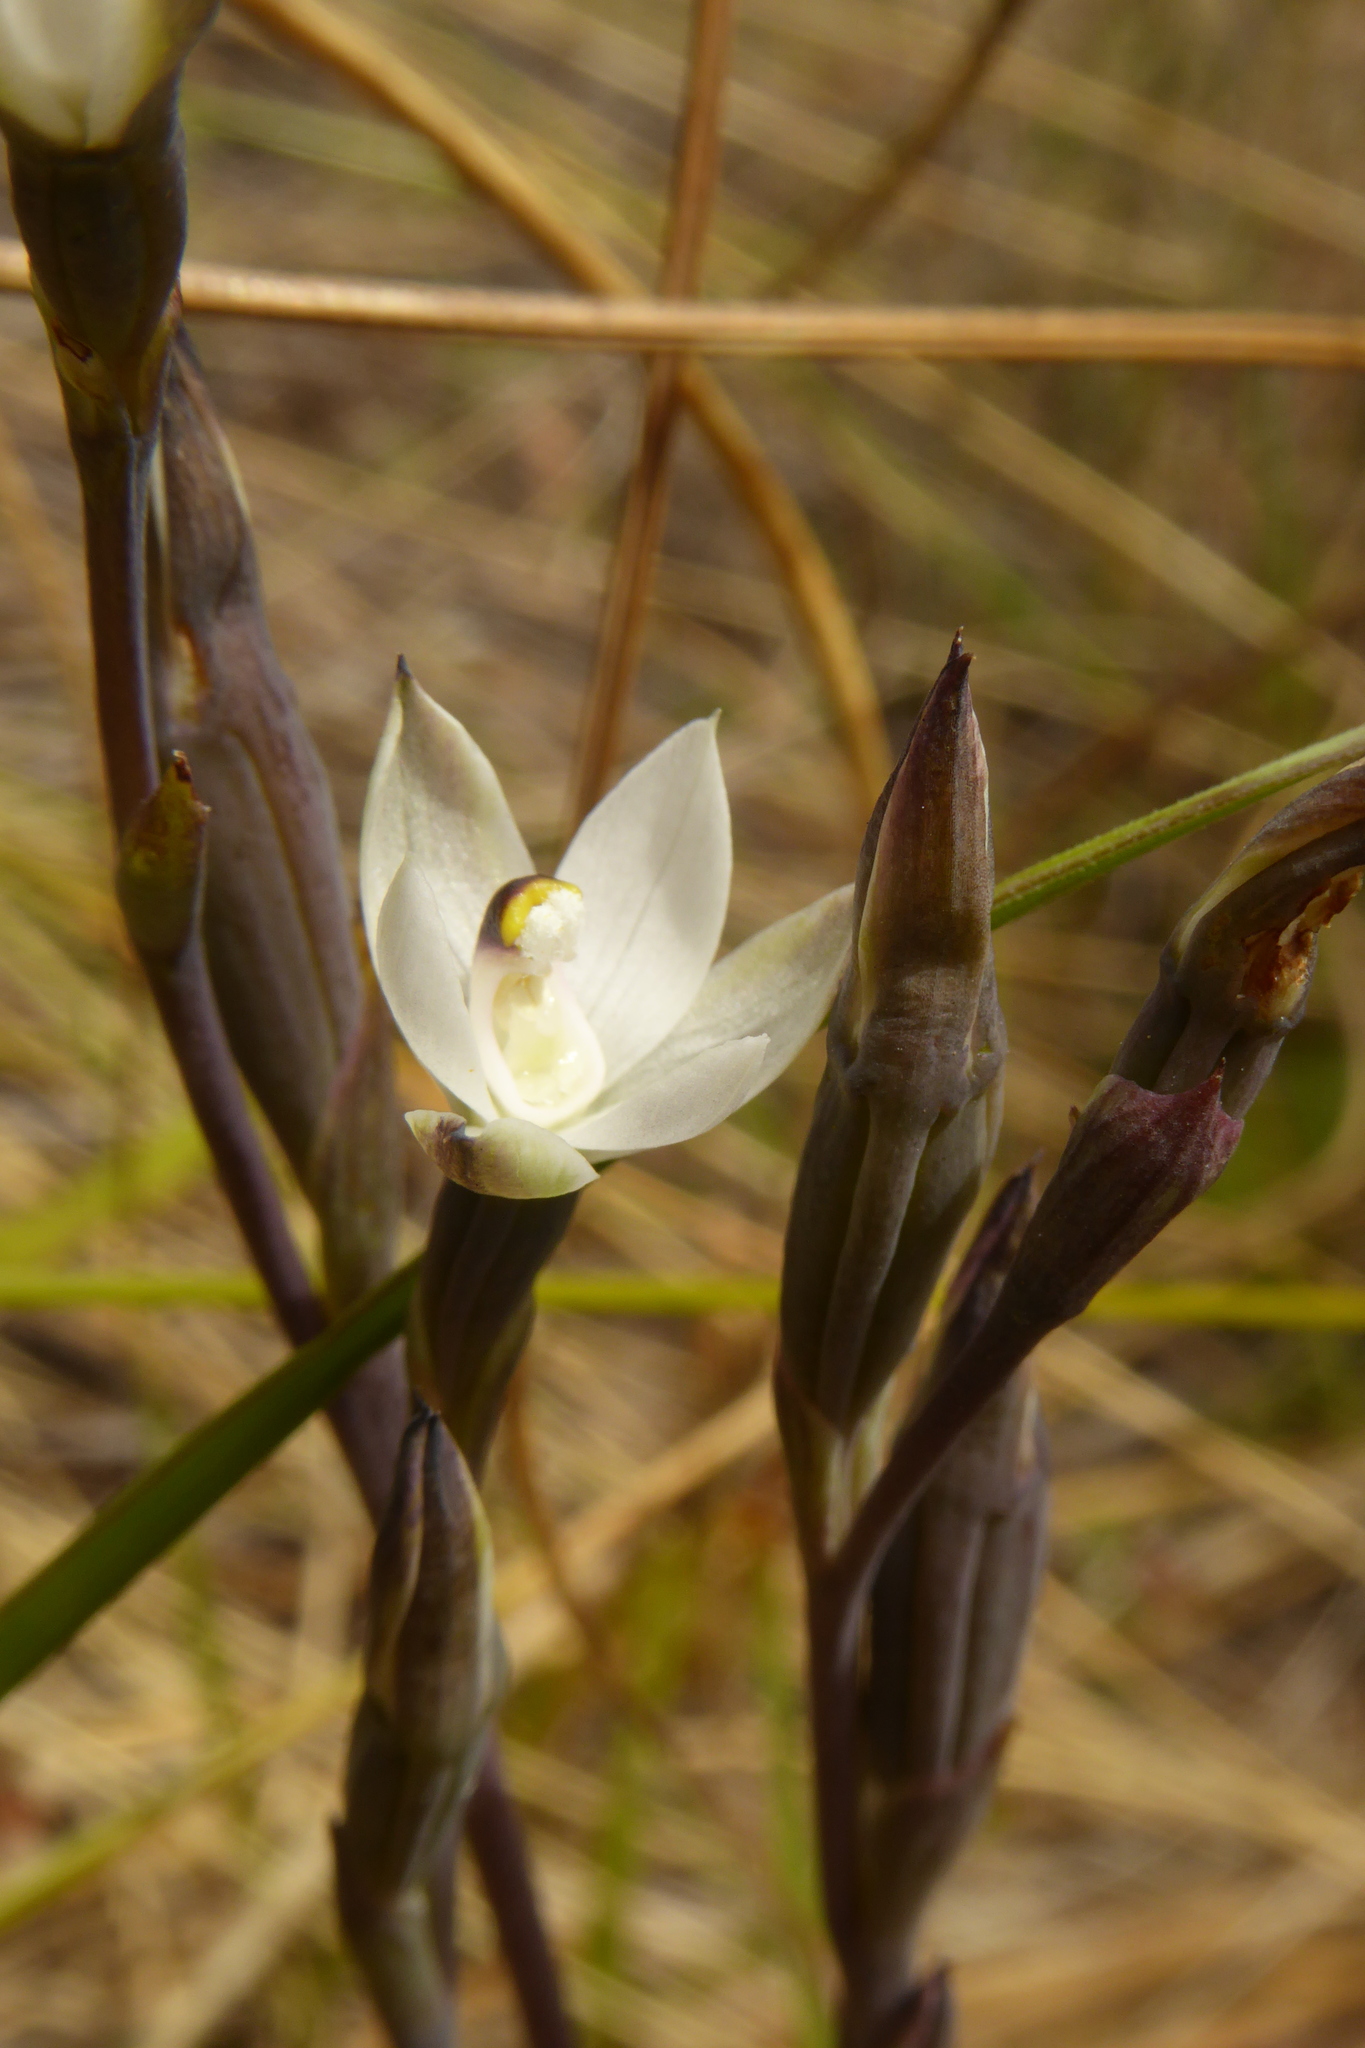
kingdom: Plantae
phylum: Tracheophyta
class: Liliopsida
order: Asparagales
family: Orchidaceae
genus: Thelymitra
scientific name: Thelymitra longifolia
